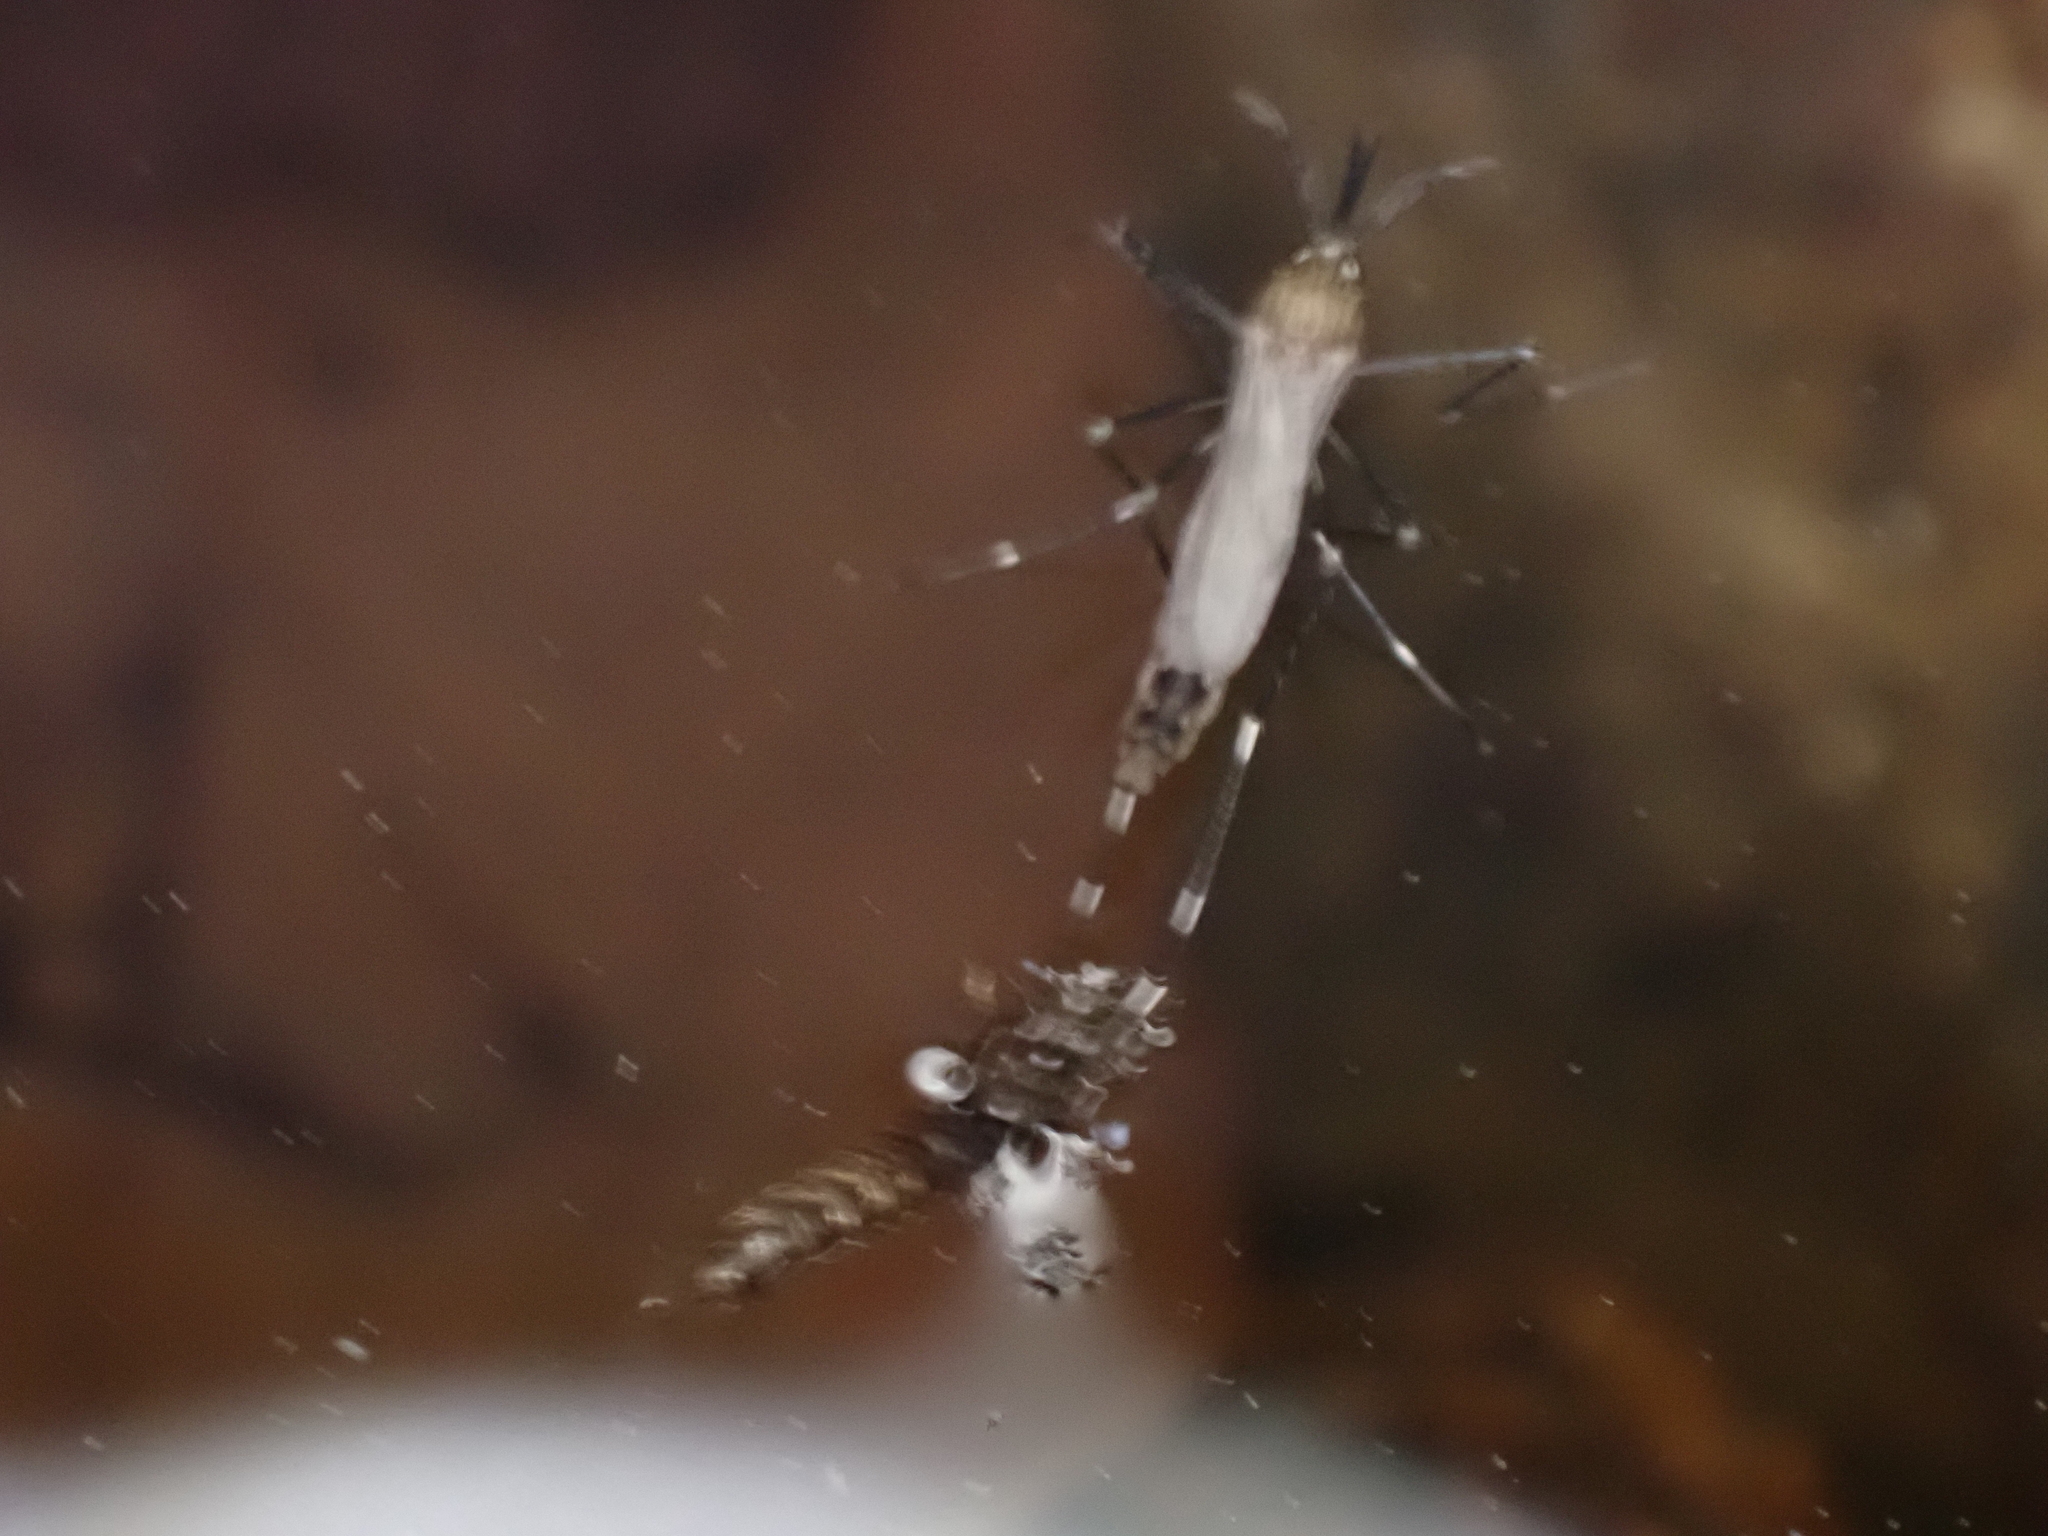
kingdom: Animalia
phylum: Arthropoda
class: Insecta
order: Diptera
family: Culicidae
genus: Aedes
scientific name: Aedes japonicus
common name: Asian bush mosquito
